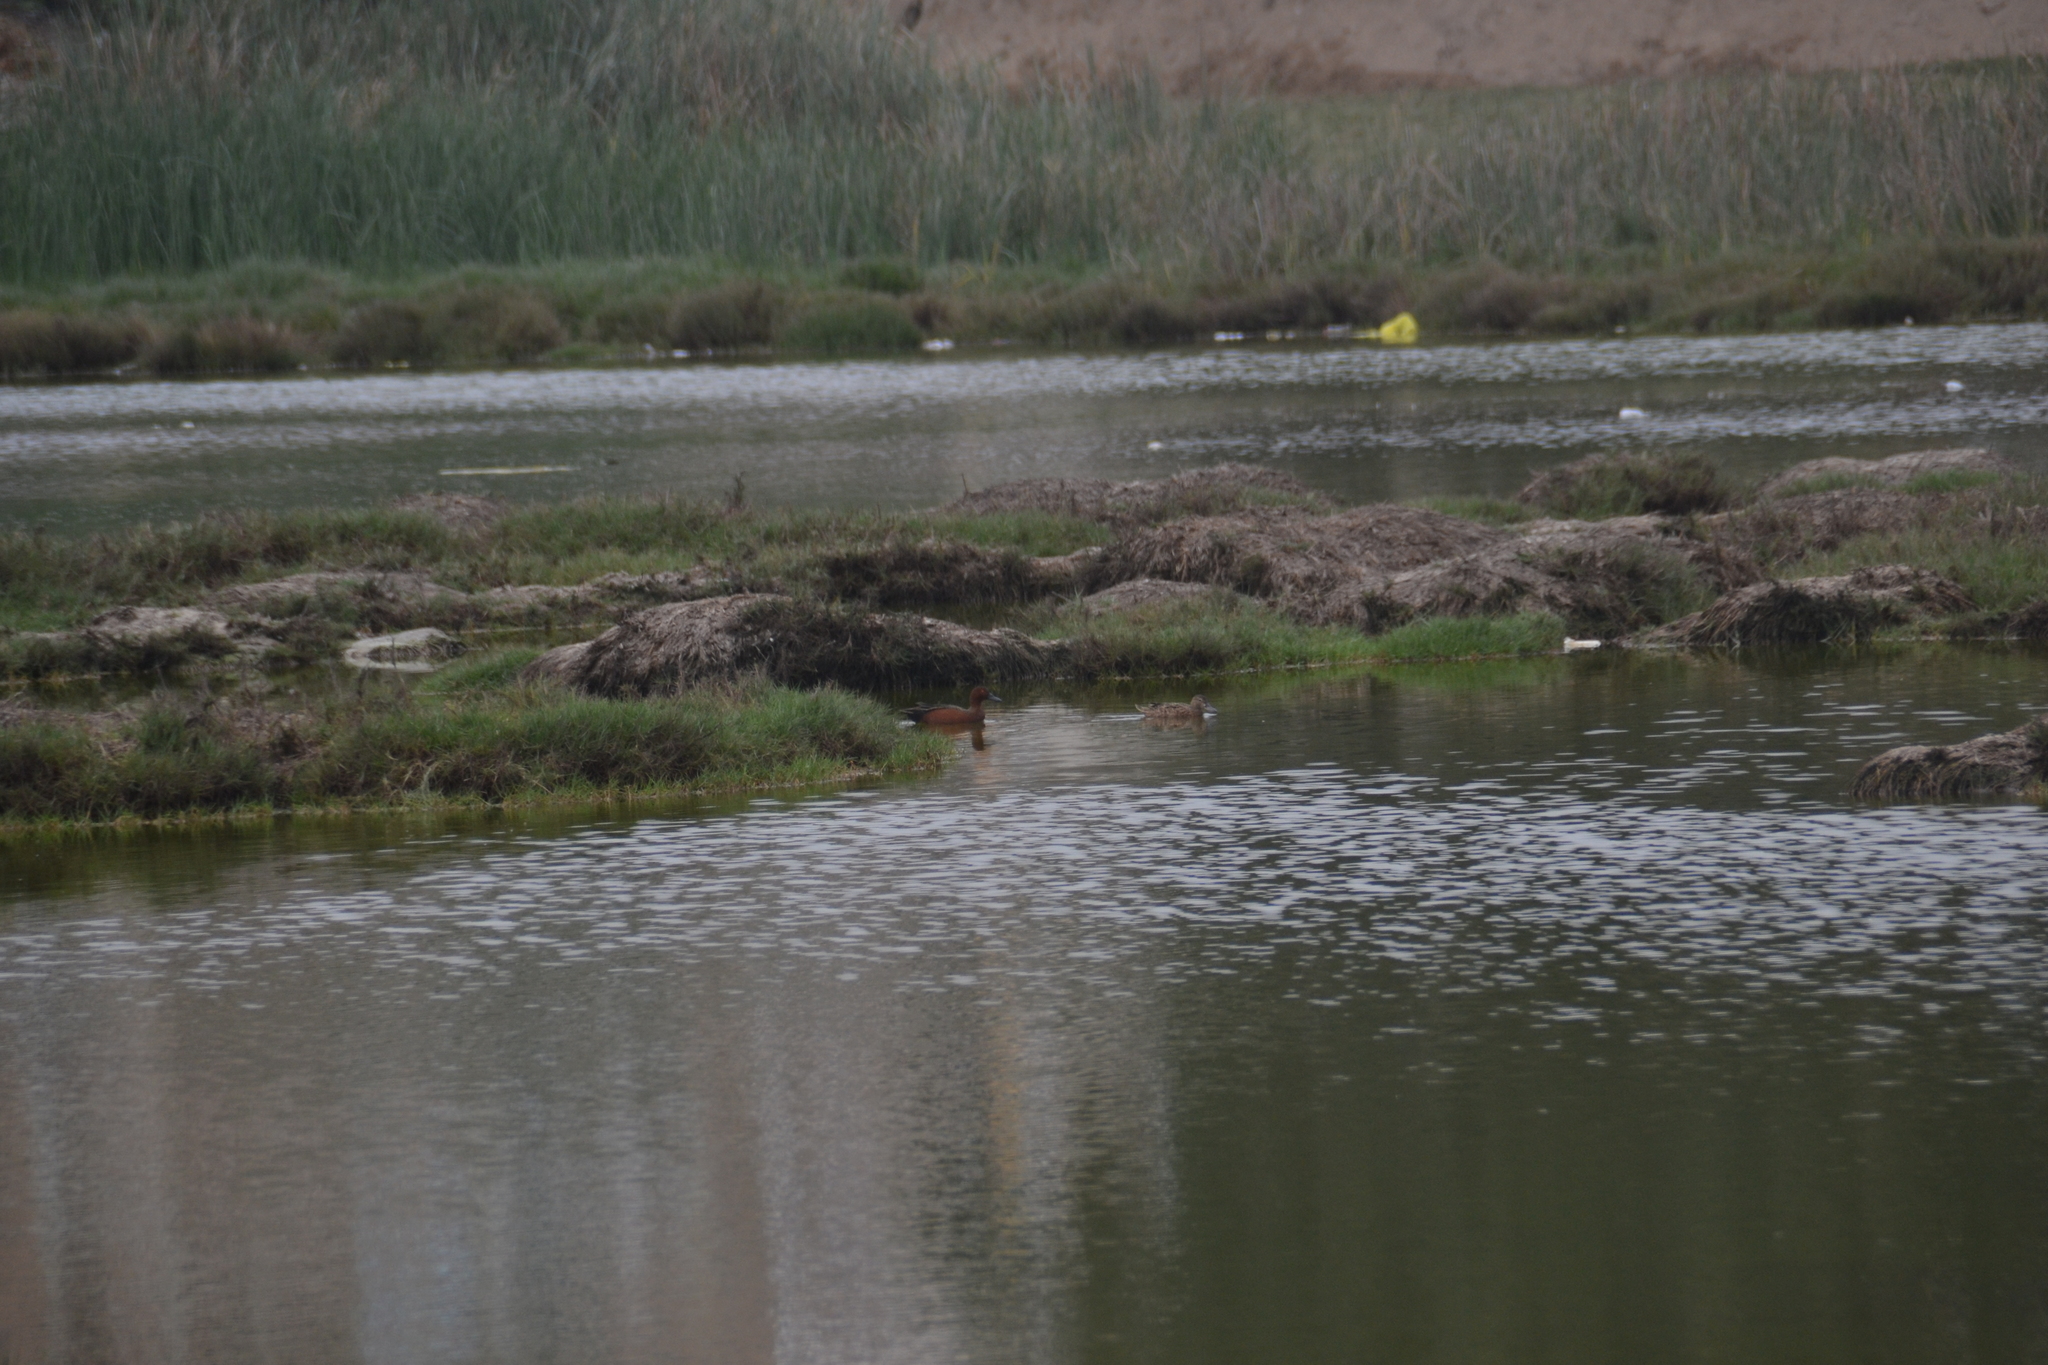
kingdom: Animalia
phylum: Chordata
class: Aves
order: Anseriformes
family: Anatidae
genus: Spatula
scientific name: Spatula cyanoptera
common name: Cinnamon teal
